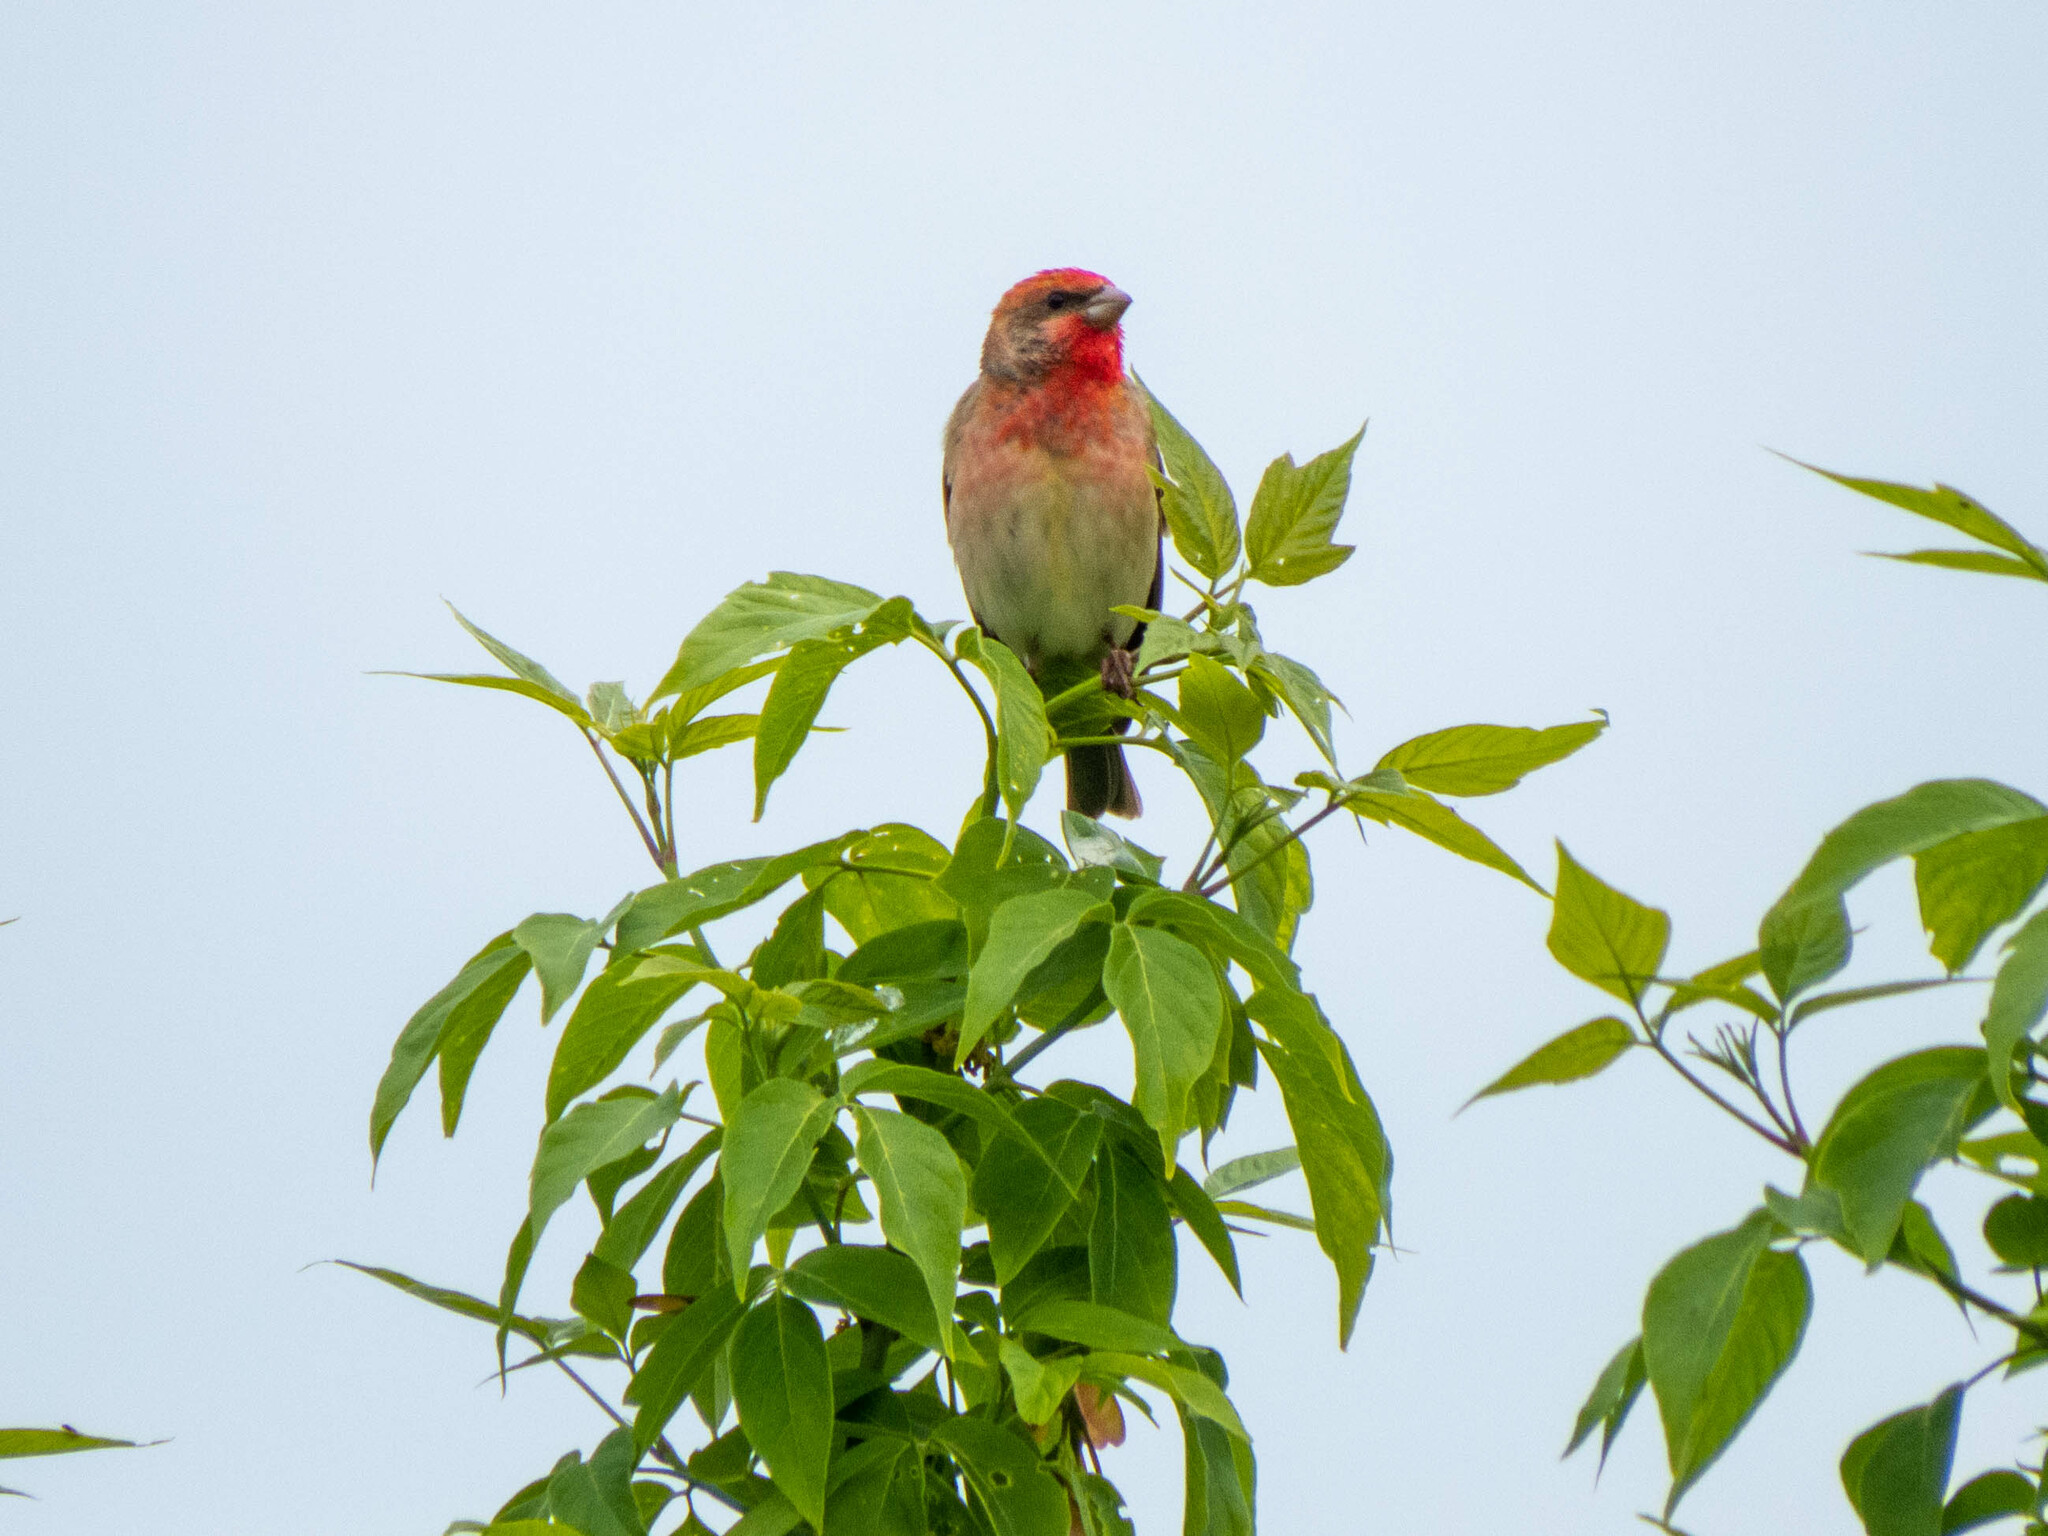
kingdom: Animalia
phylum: Chordata
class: Aves
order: Passeriformes
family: Fringillidae
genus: Carpodacus
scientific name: Carpodacus erythrinus
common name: Common rosefinch
